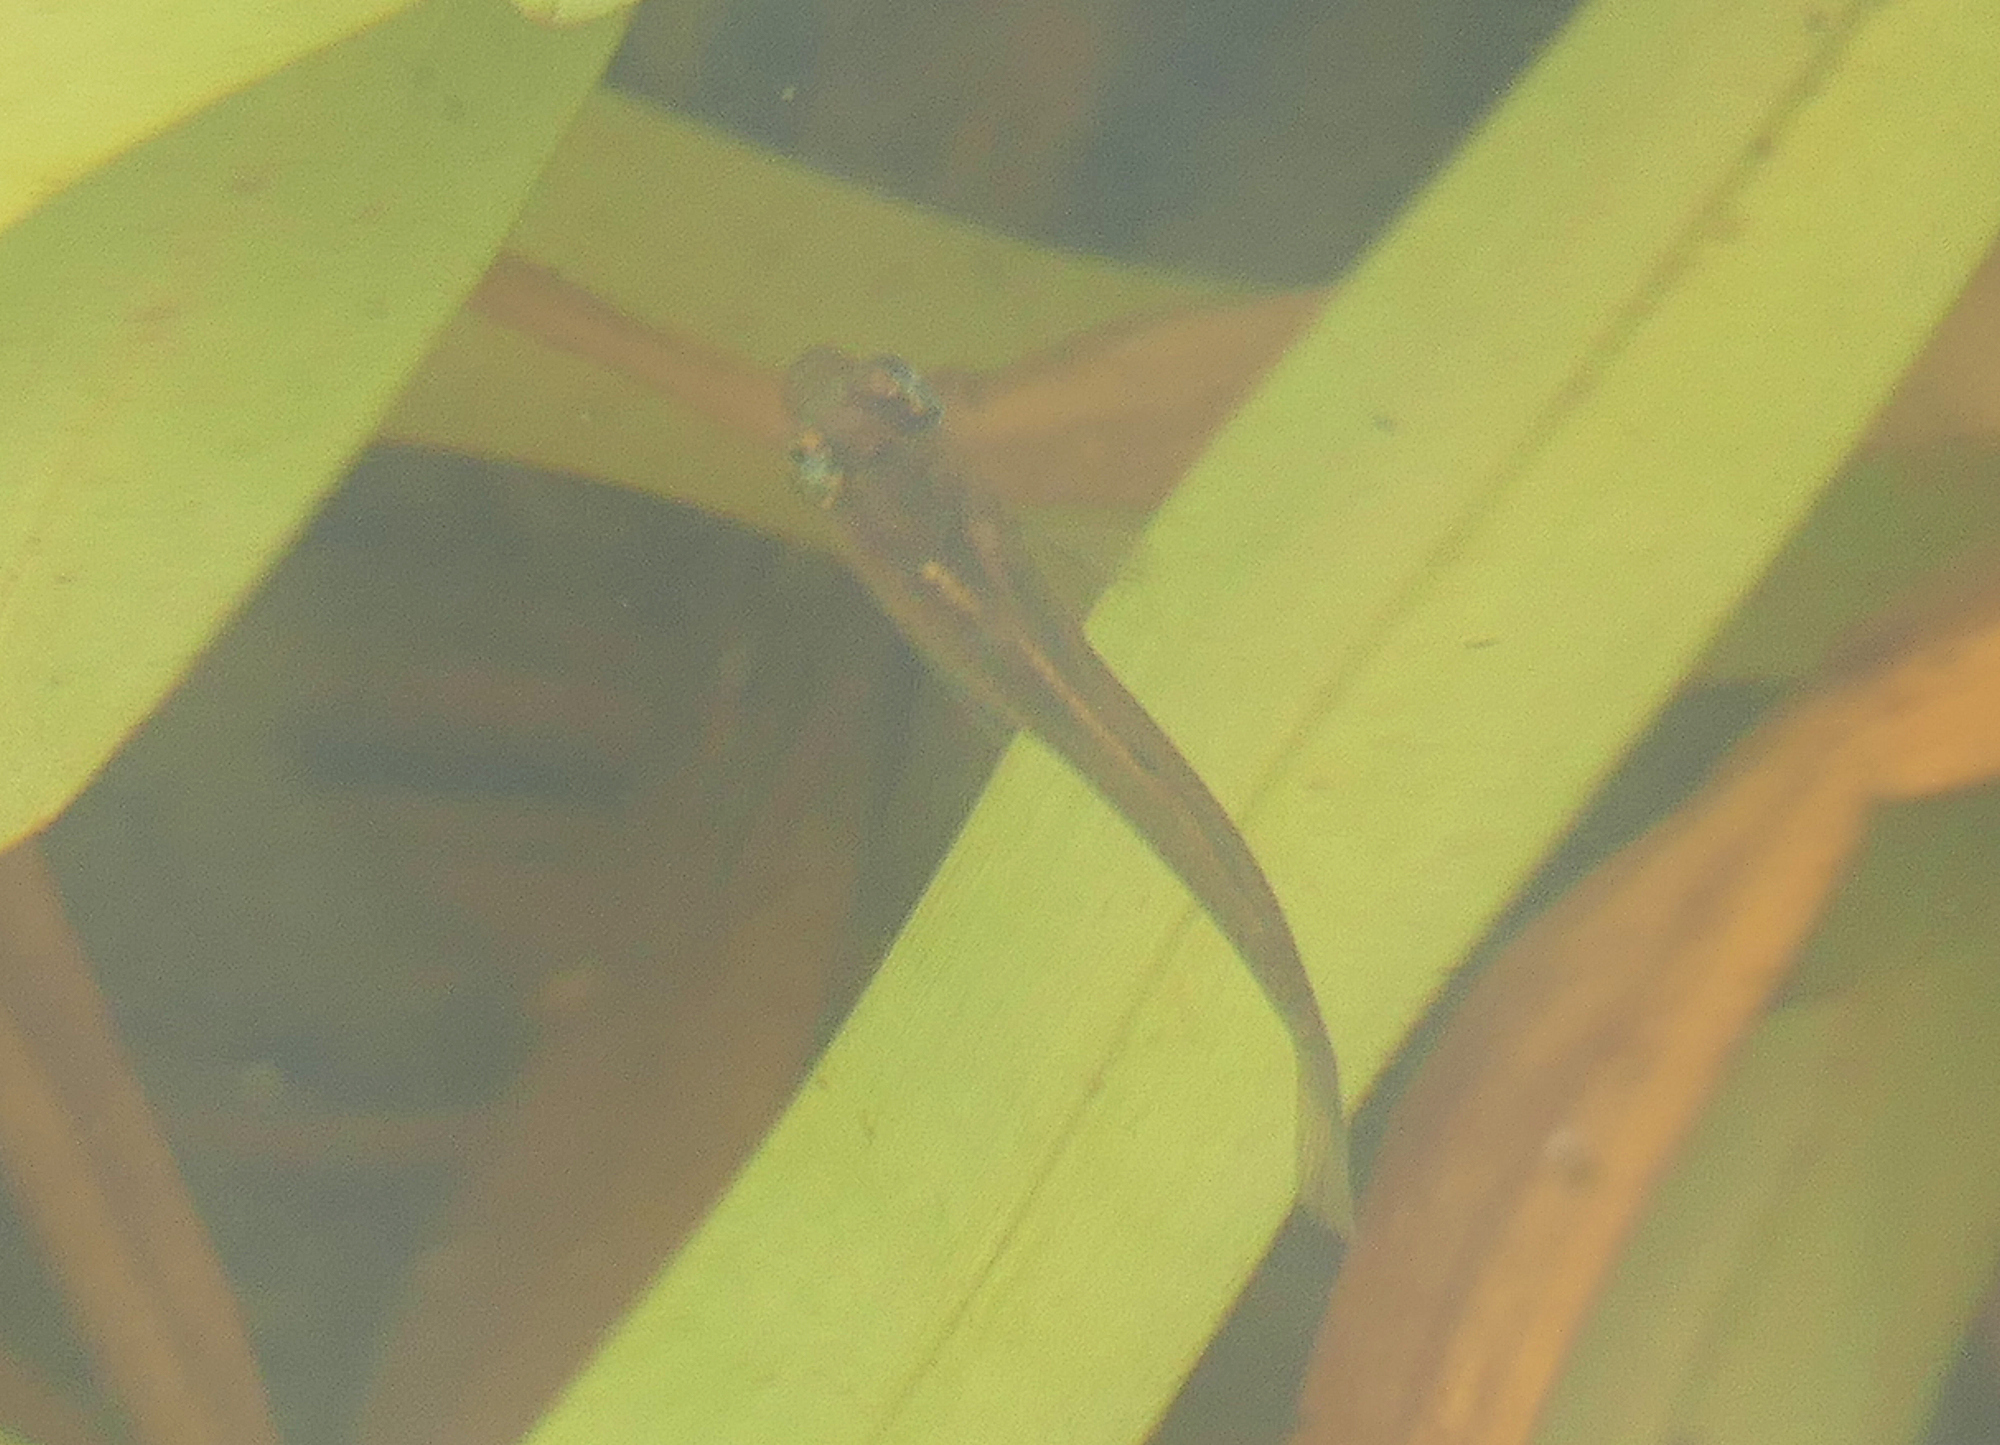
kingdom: Animalia
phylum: Chordata
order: Cyprinodontiformes
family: Poeciliidae
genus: Gambusia
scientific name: Gambusia affinis
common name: Mosquitofish
